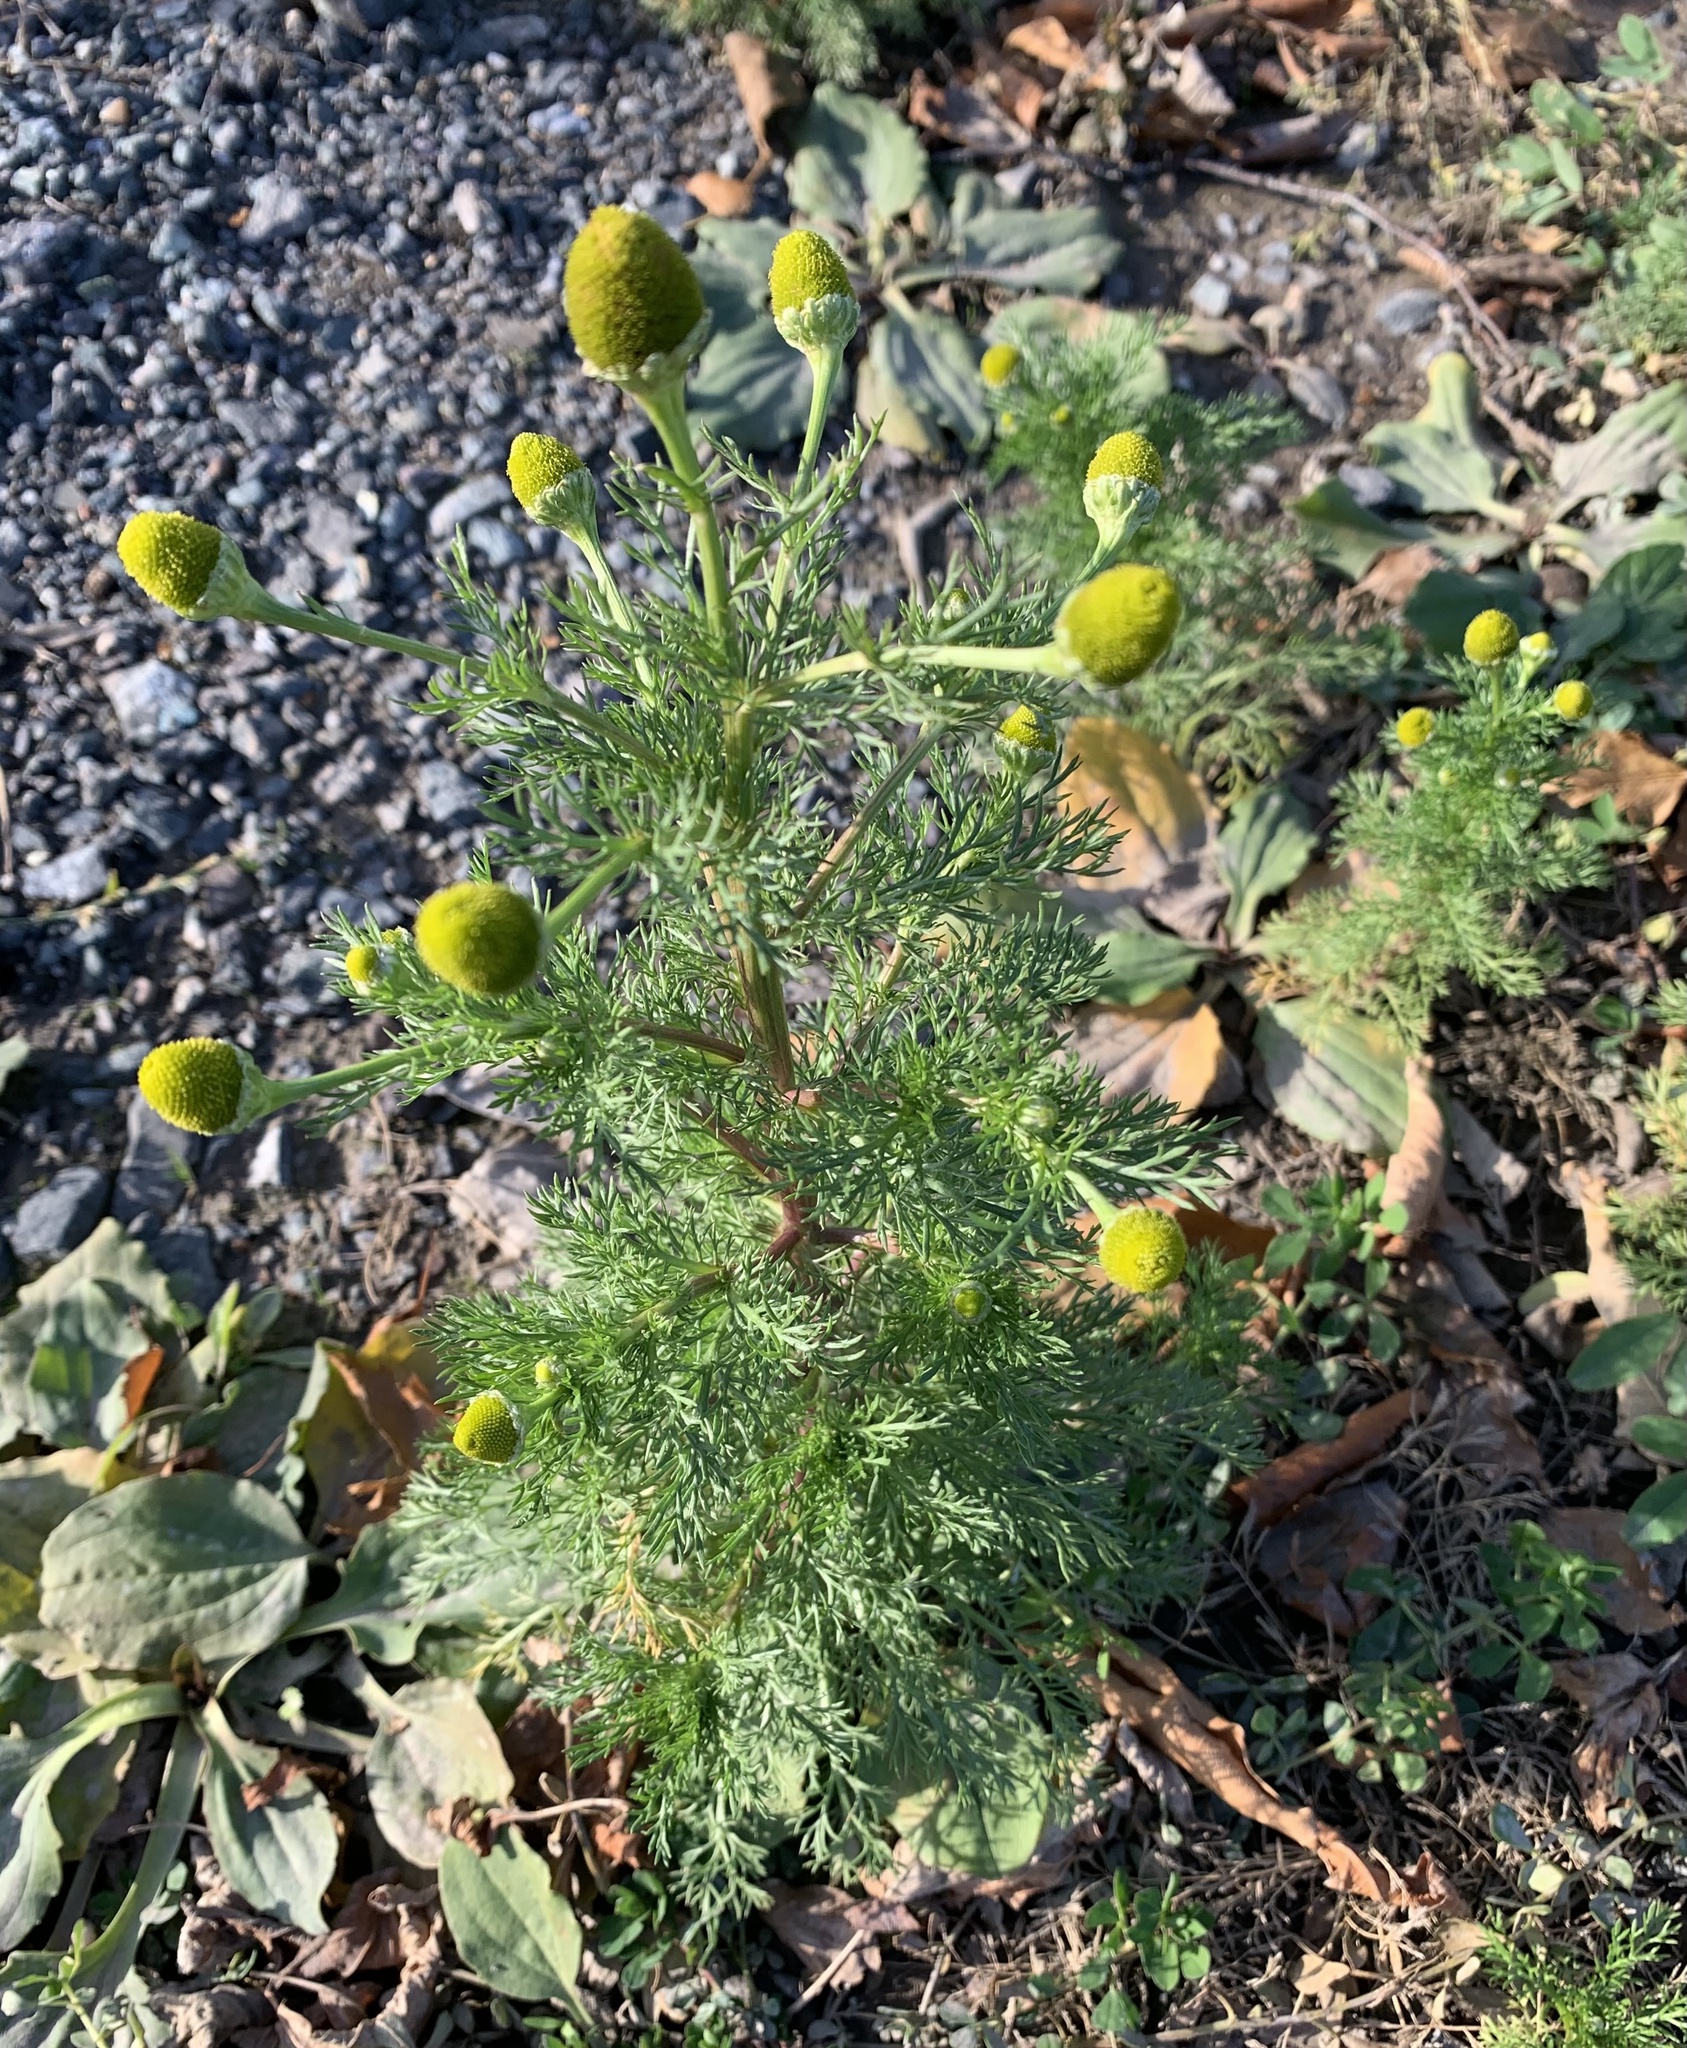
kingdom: Plantae
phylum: Tracheophyta
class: Magnoliopsida
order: Asterales
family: Asteraceae
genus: Matricaria
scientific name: Matricaria discoidea
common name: Disc mayweed
